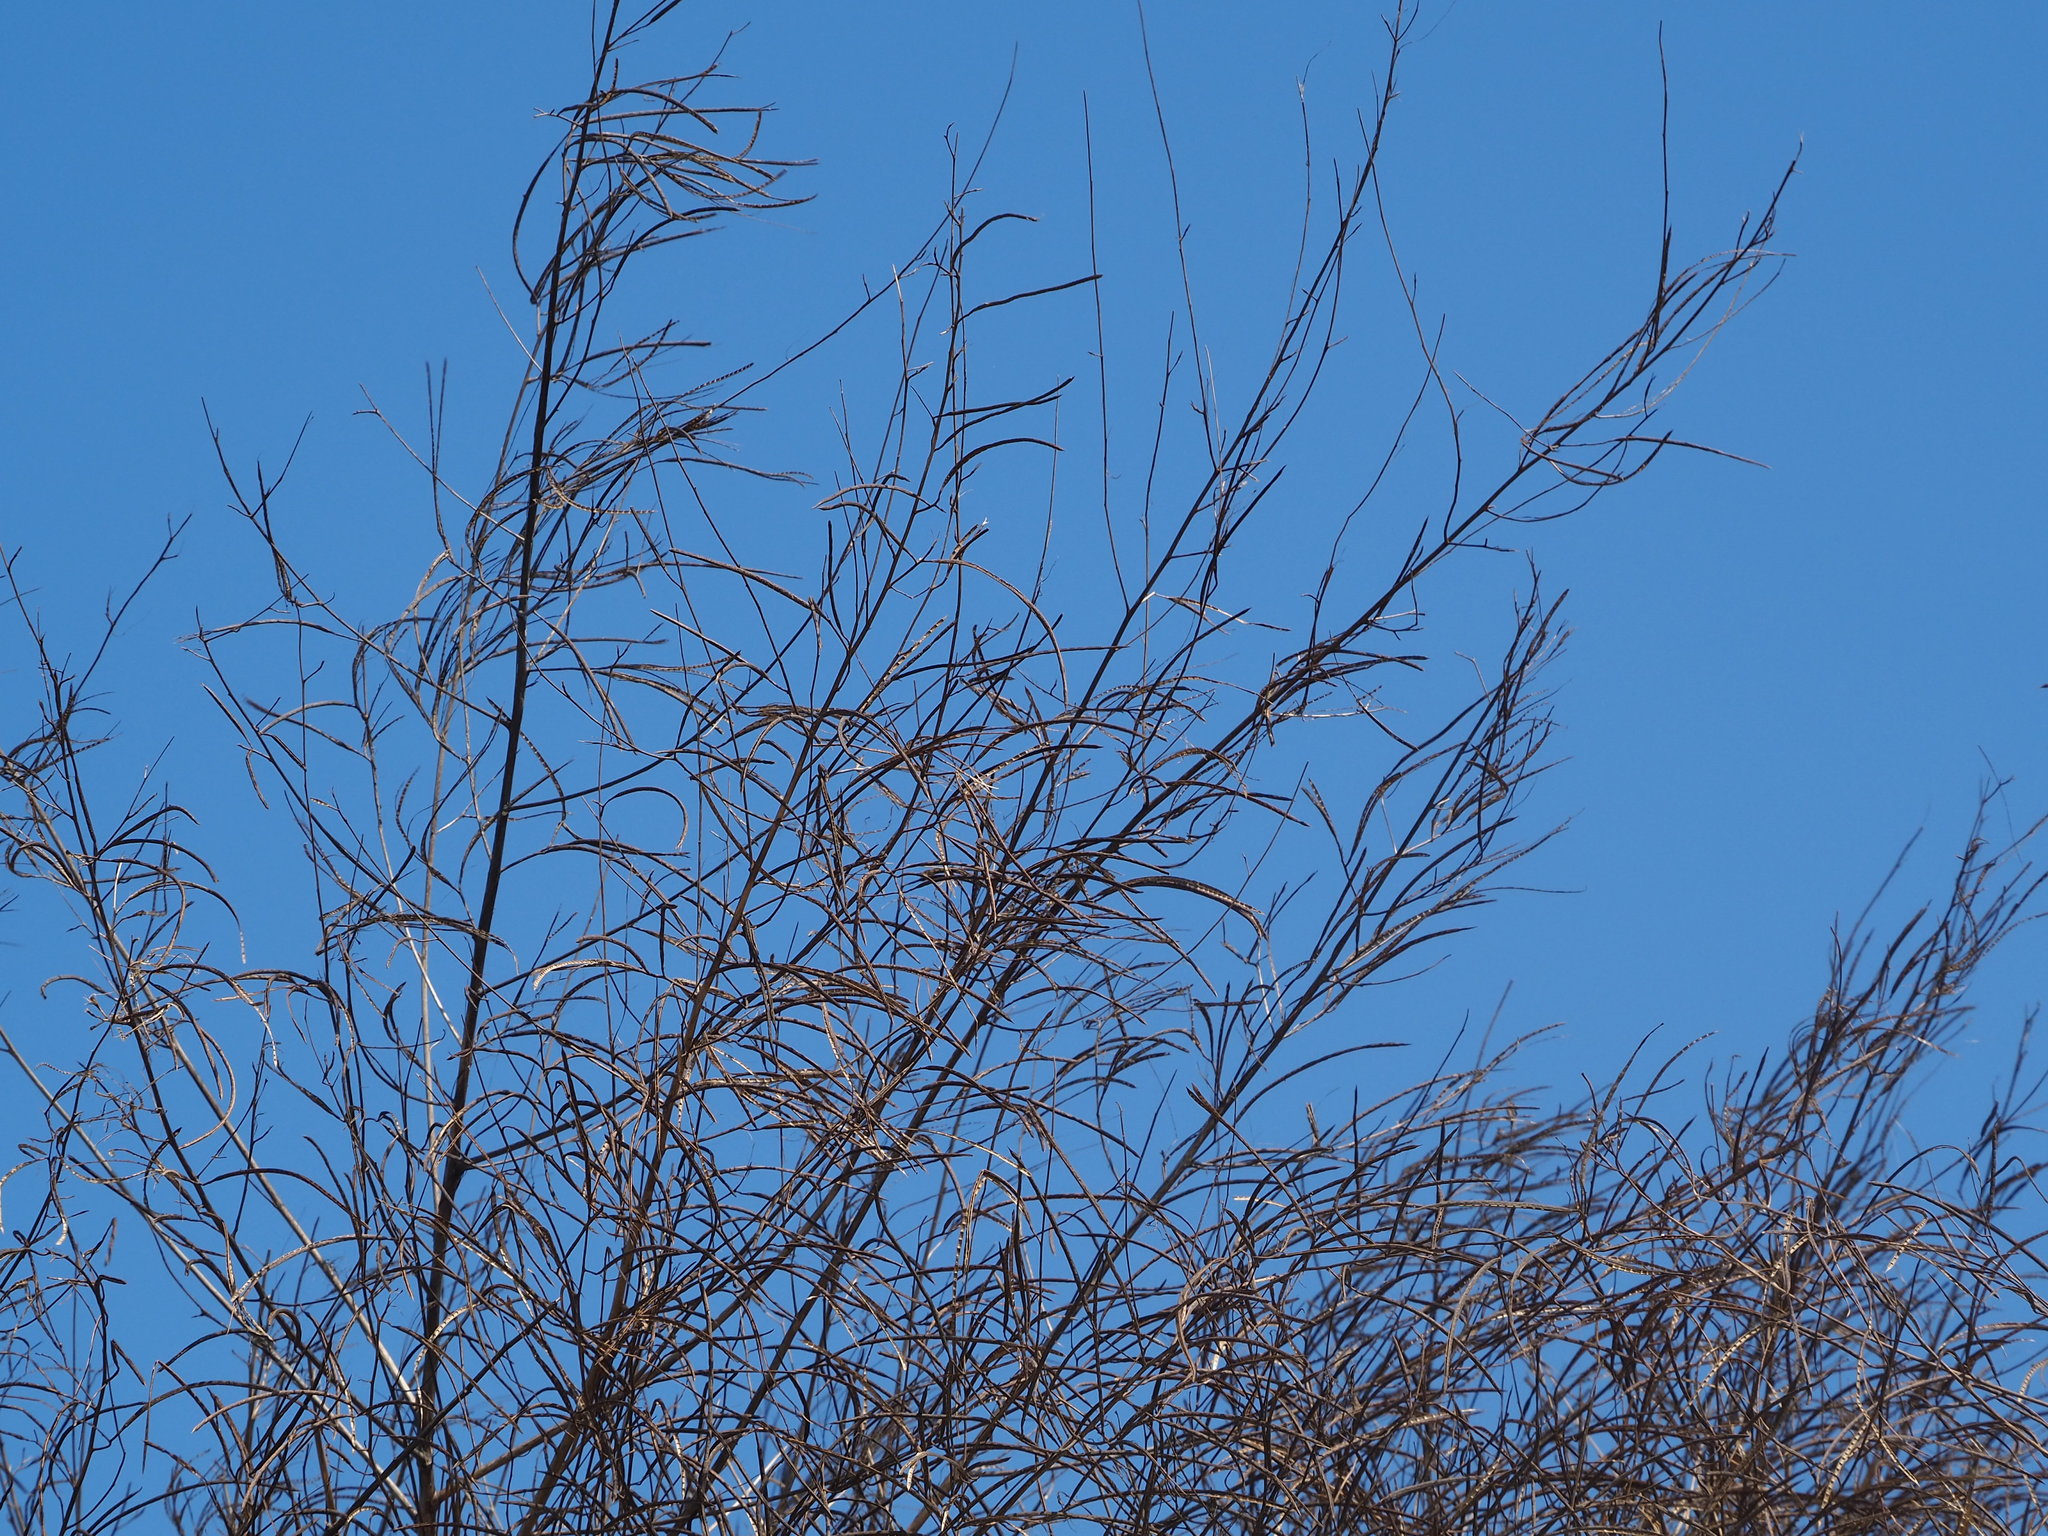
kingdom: Plantae
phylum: Tracheophyta
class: Magnoliopsida
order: Fabales
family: Fabaceae
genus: Sesbania
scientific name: Sesbania cannabina
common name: Canicha
